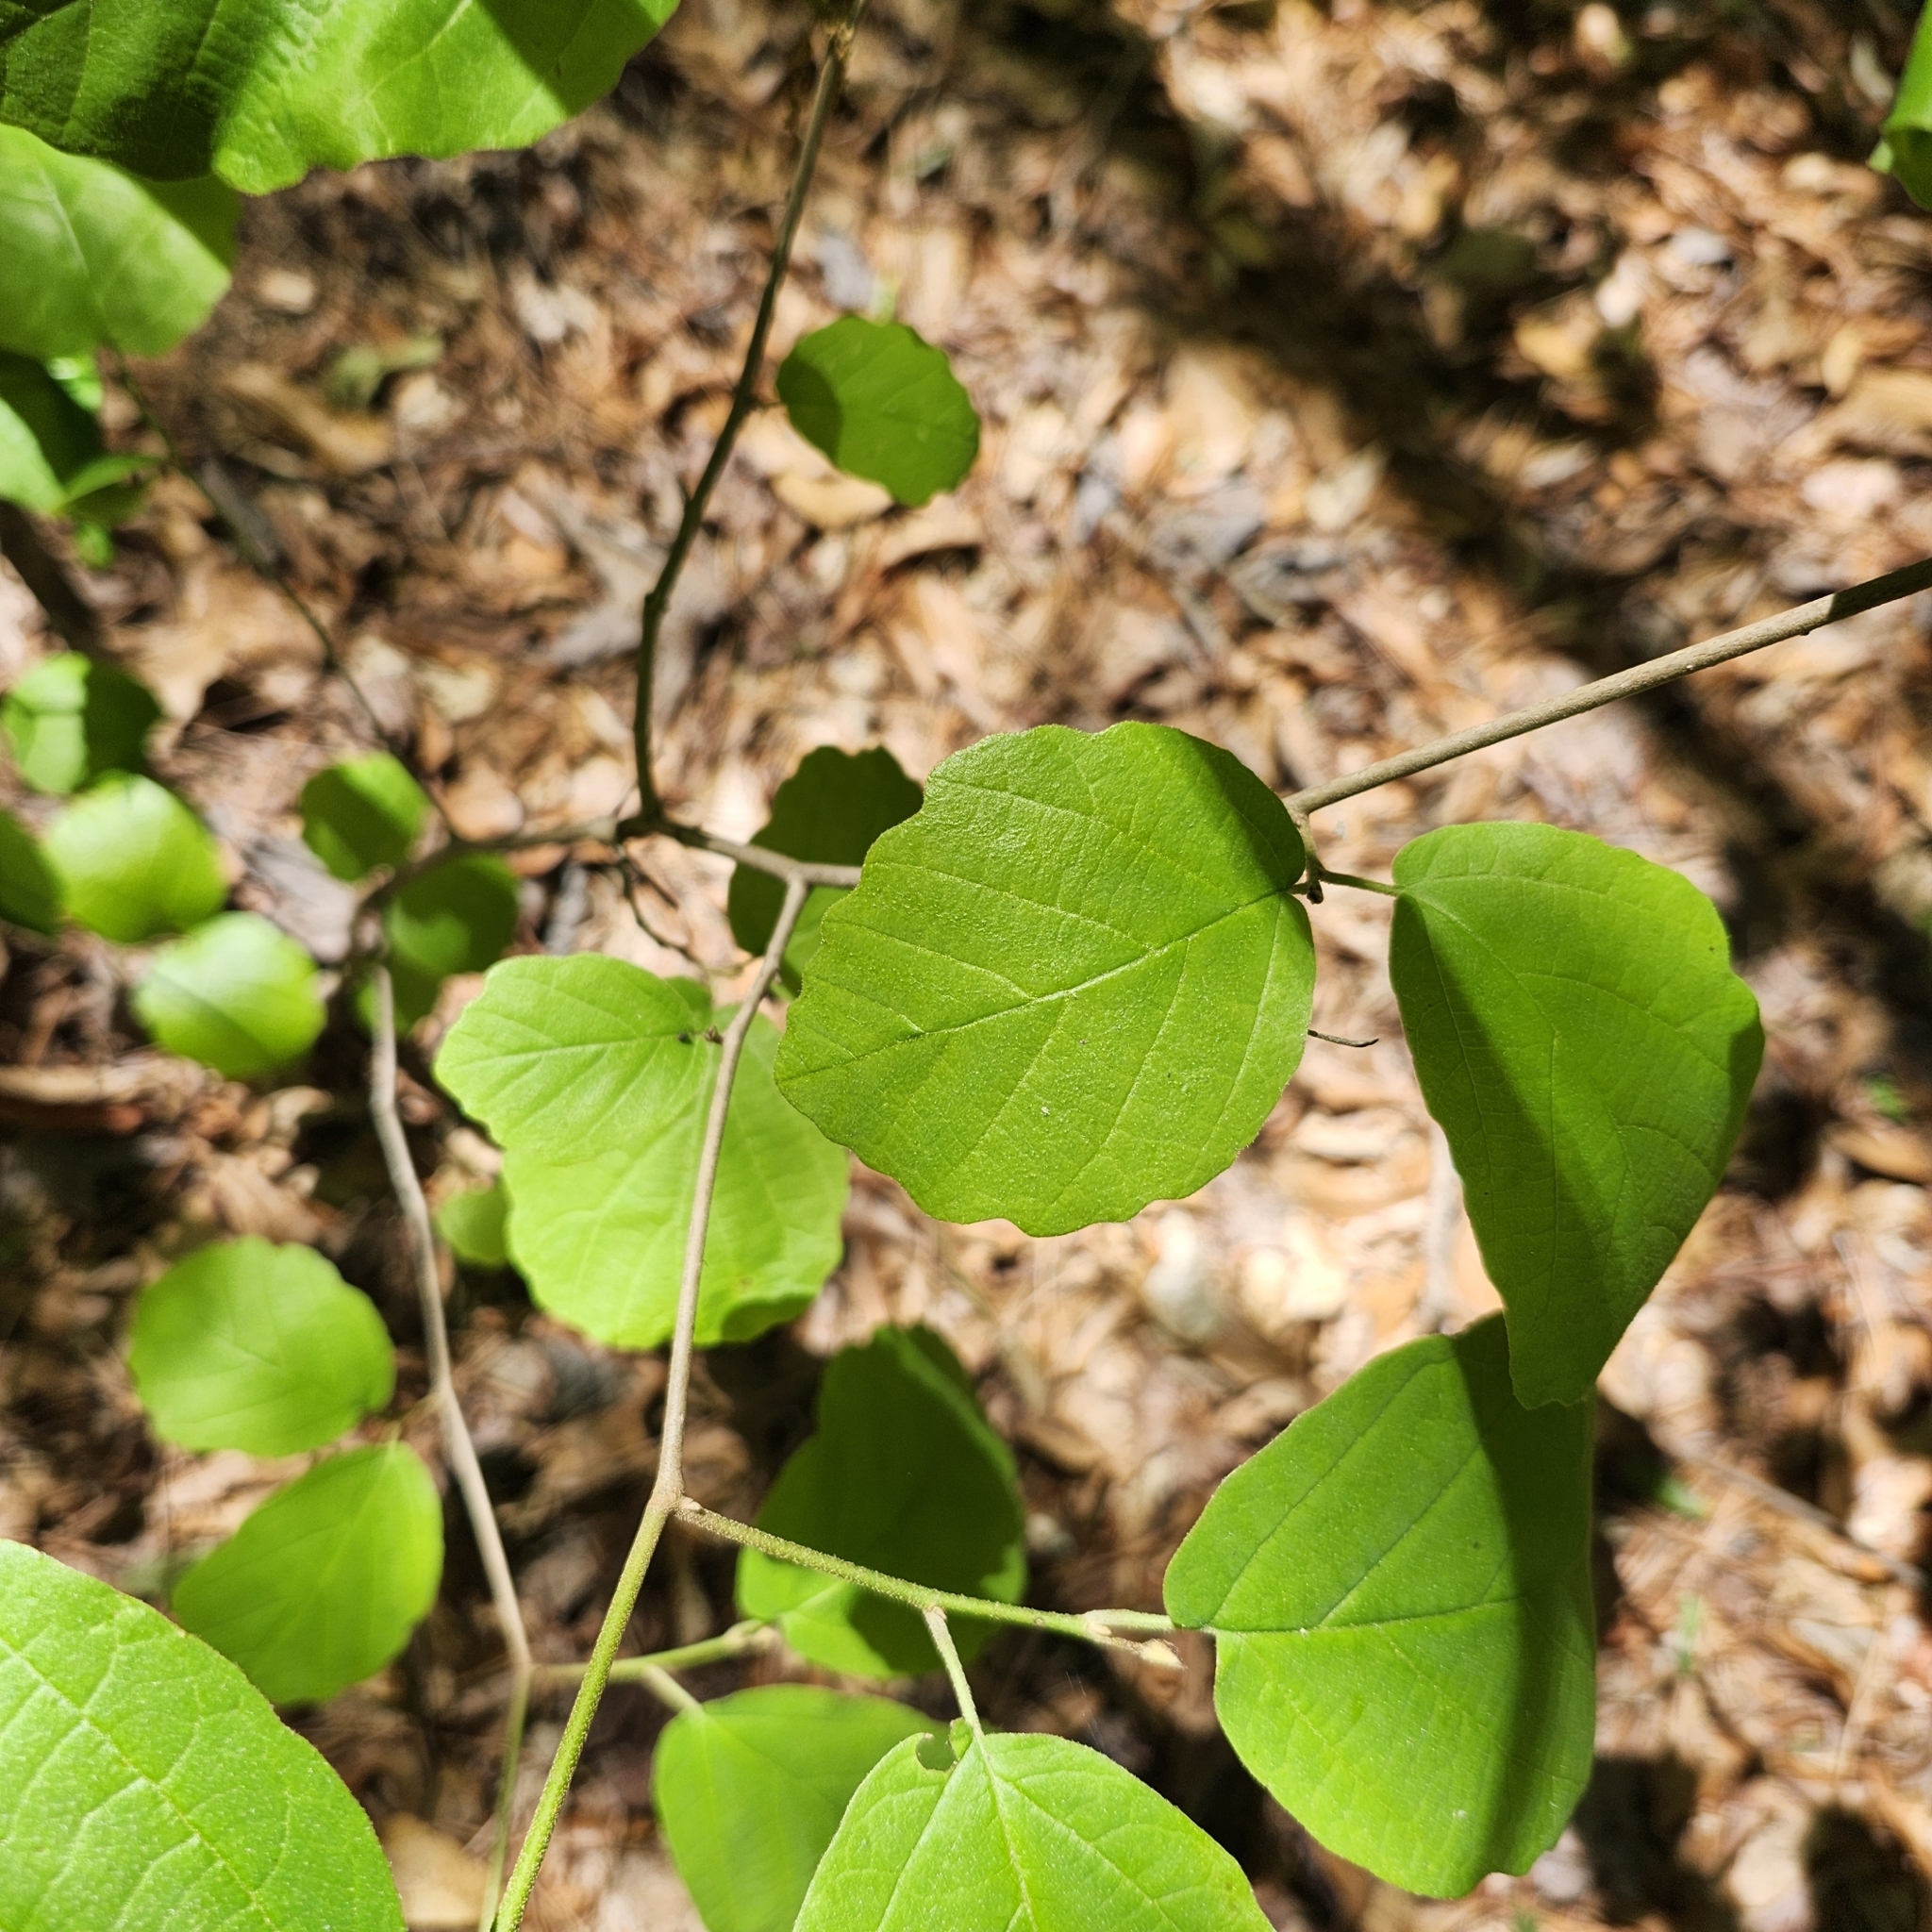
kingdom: Plantae
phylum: Tracheophyta
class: Magnoliopsida
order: Saxifragales
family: Hamamelidaceae
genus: Hamamelis
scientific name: Hamamelis virginiana
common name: Witch-hazel
